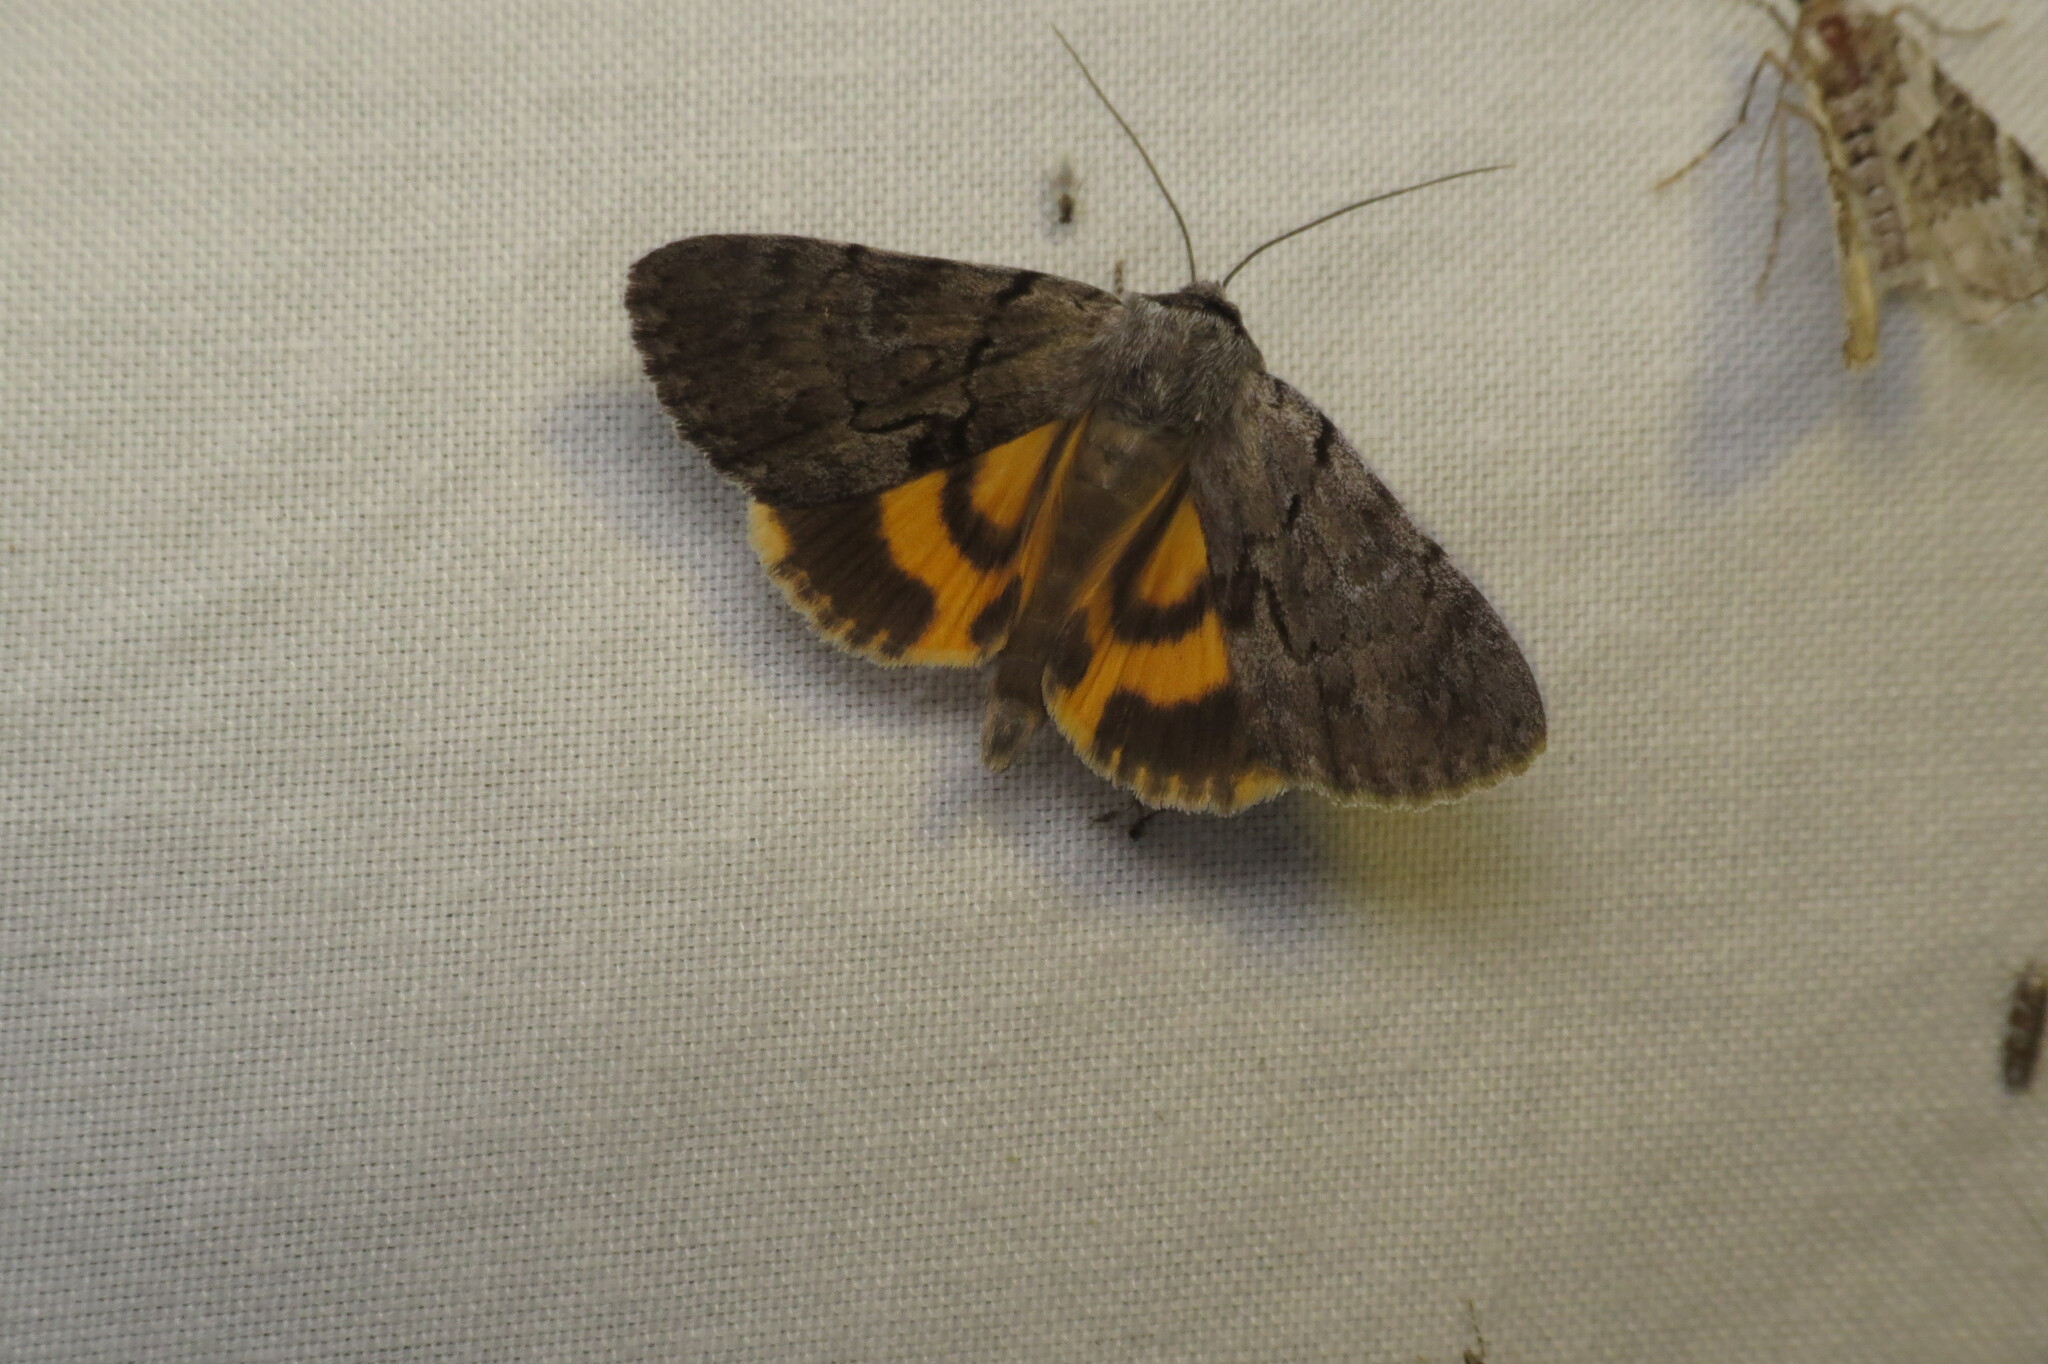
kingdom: Animalia
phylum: Arthropoda
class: Insecta
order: Lepidoptera
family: Erebidae
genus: Catocala
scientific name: Catocala sordida
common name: Sordid underwing
